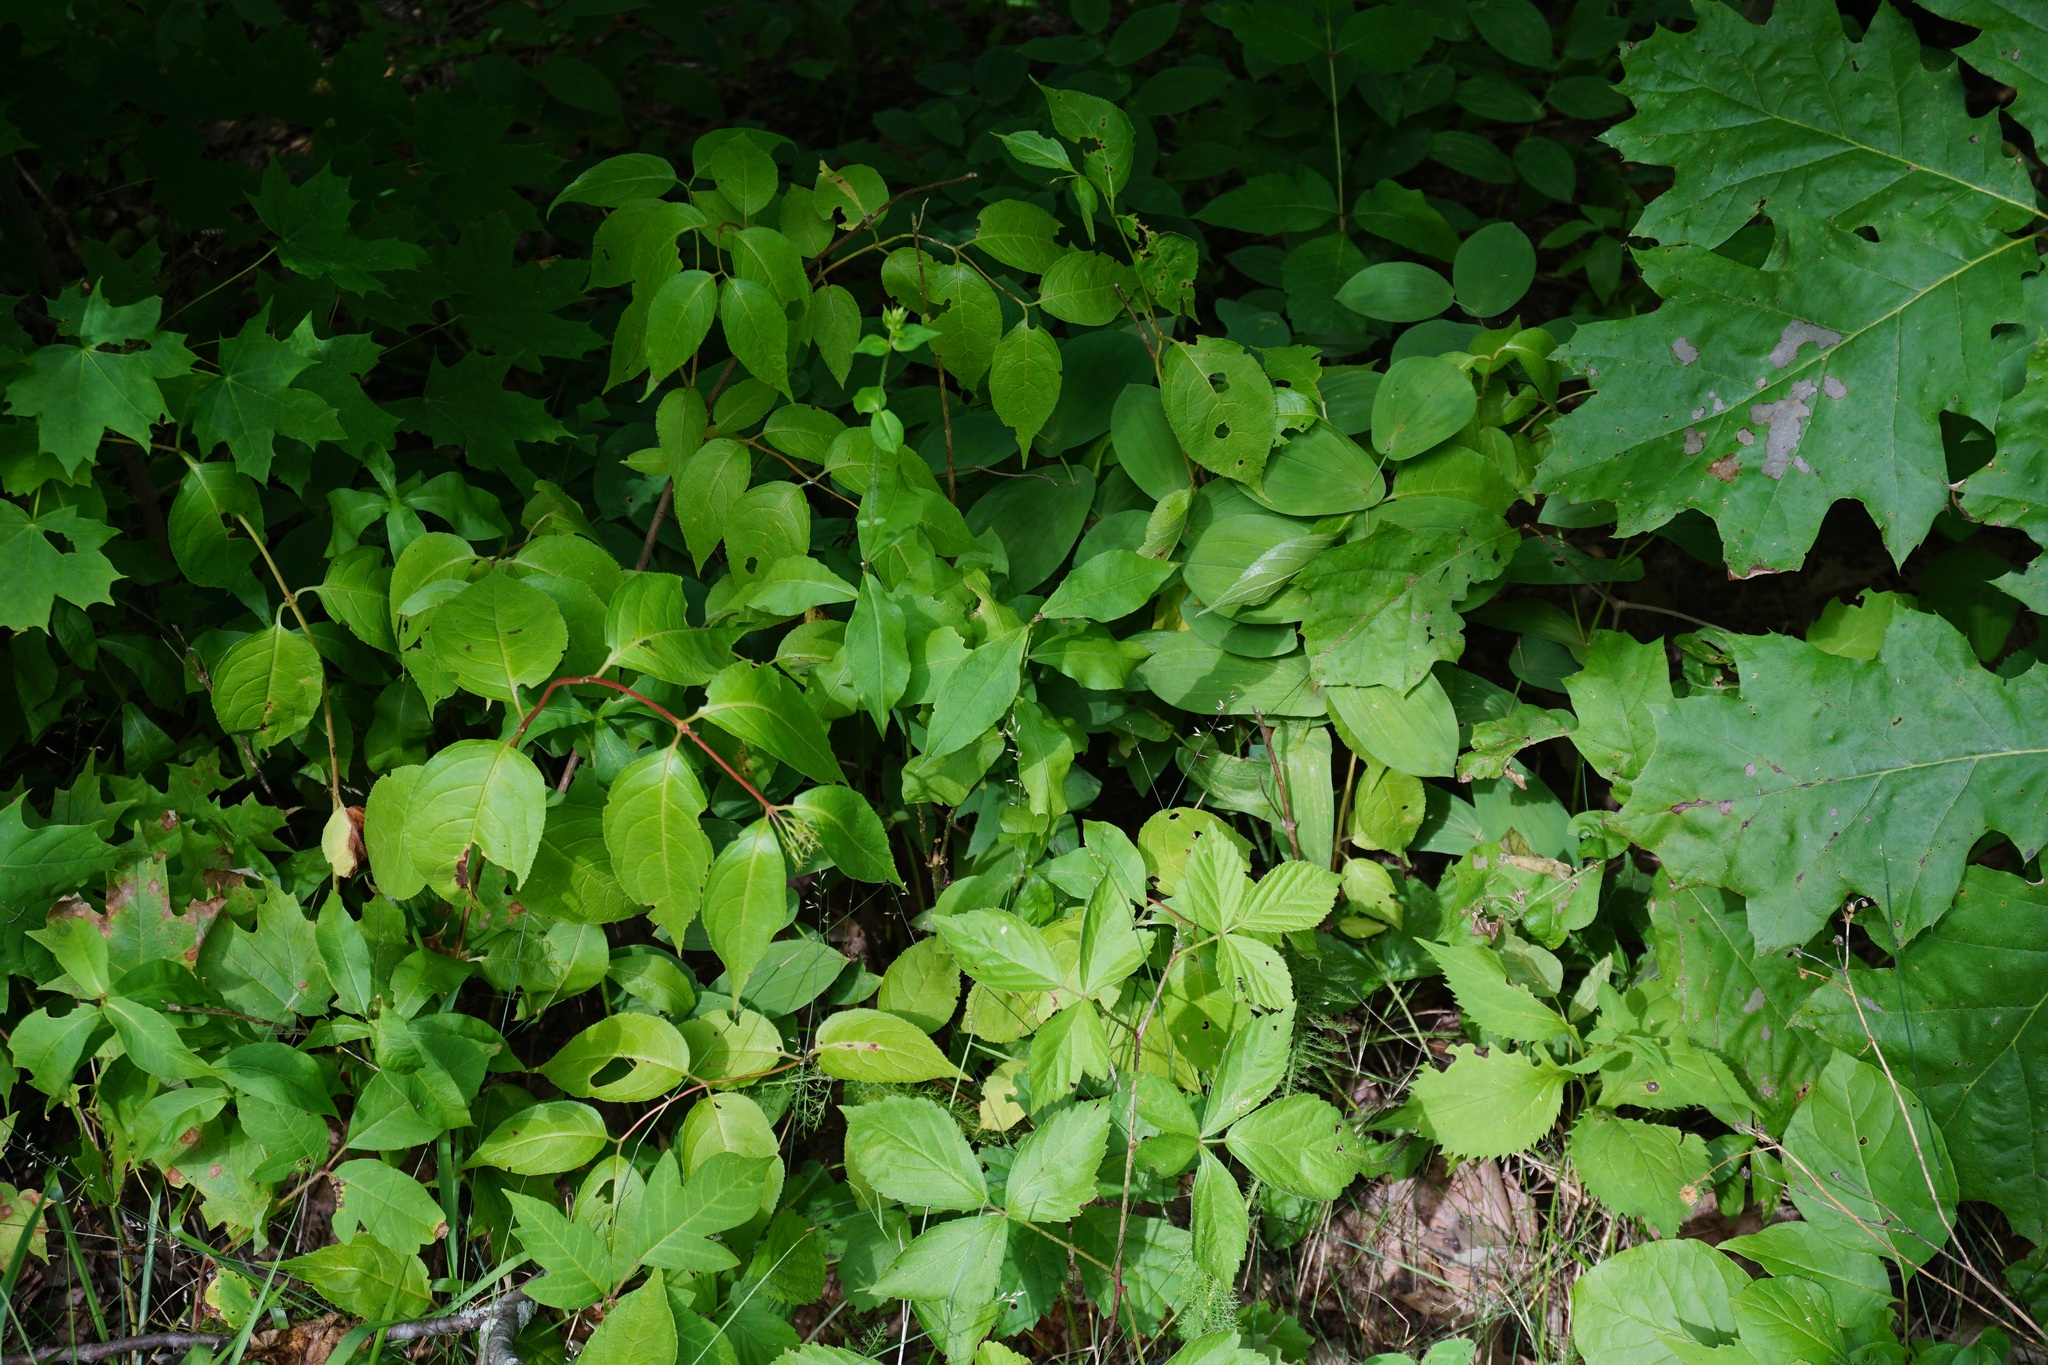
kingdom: Plantae
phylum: Tracheophyta
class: Magnoliopsida
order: Dipsacales
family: Caprifoliaceae
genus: Diervilla
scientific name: Diervilla lonicera
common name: Bush-honeysuckle
